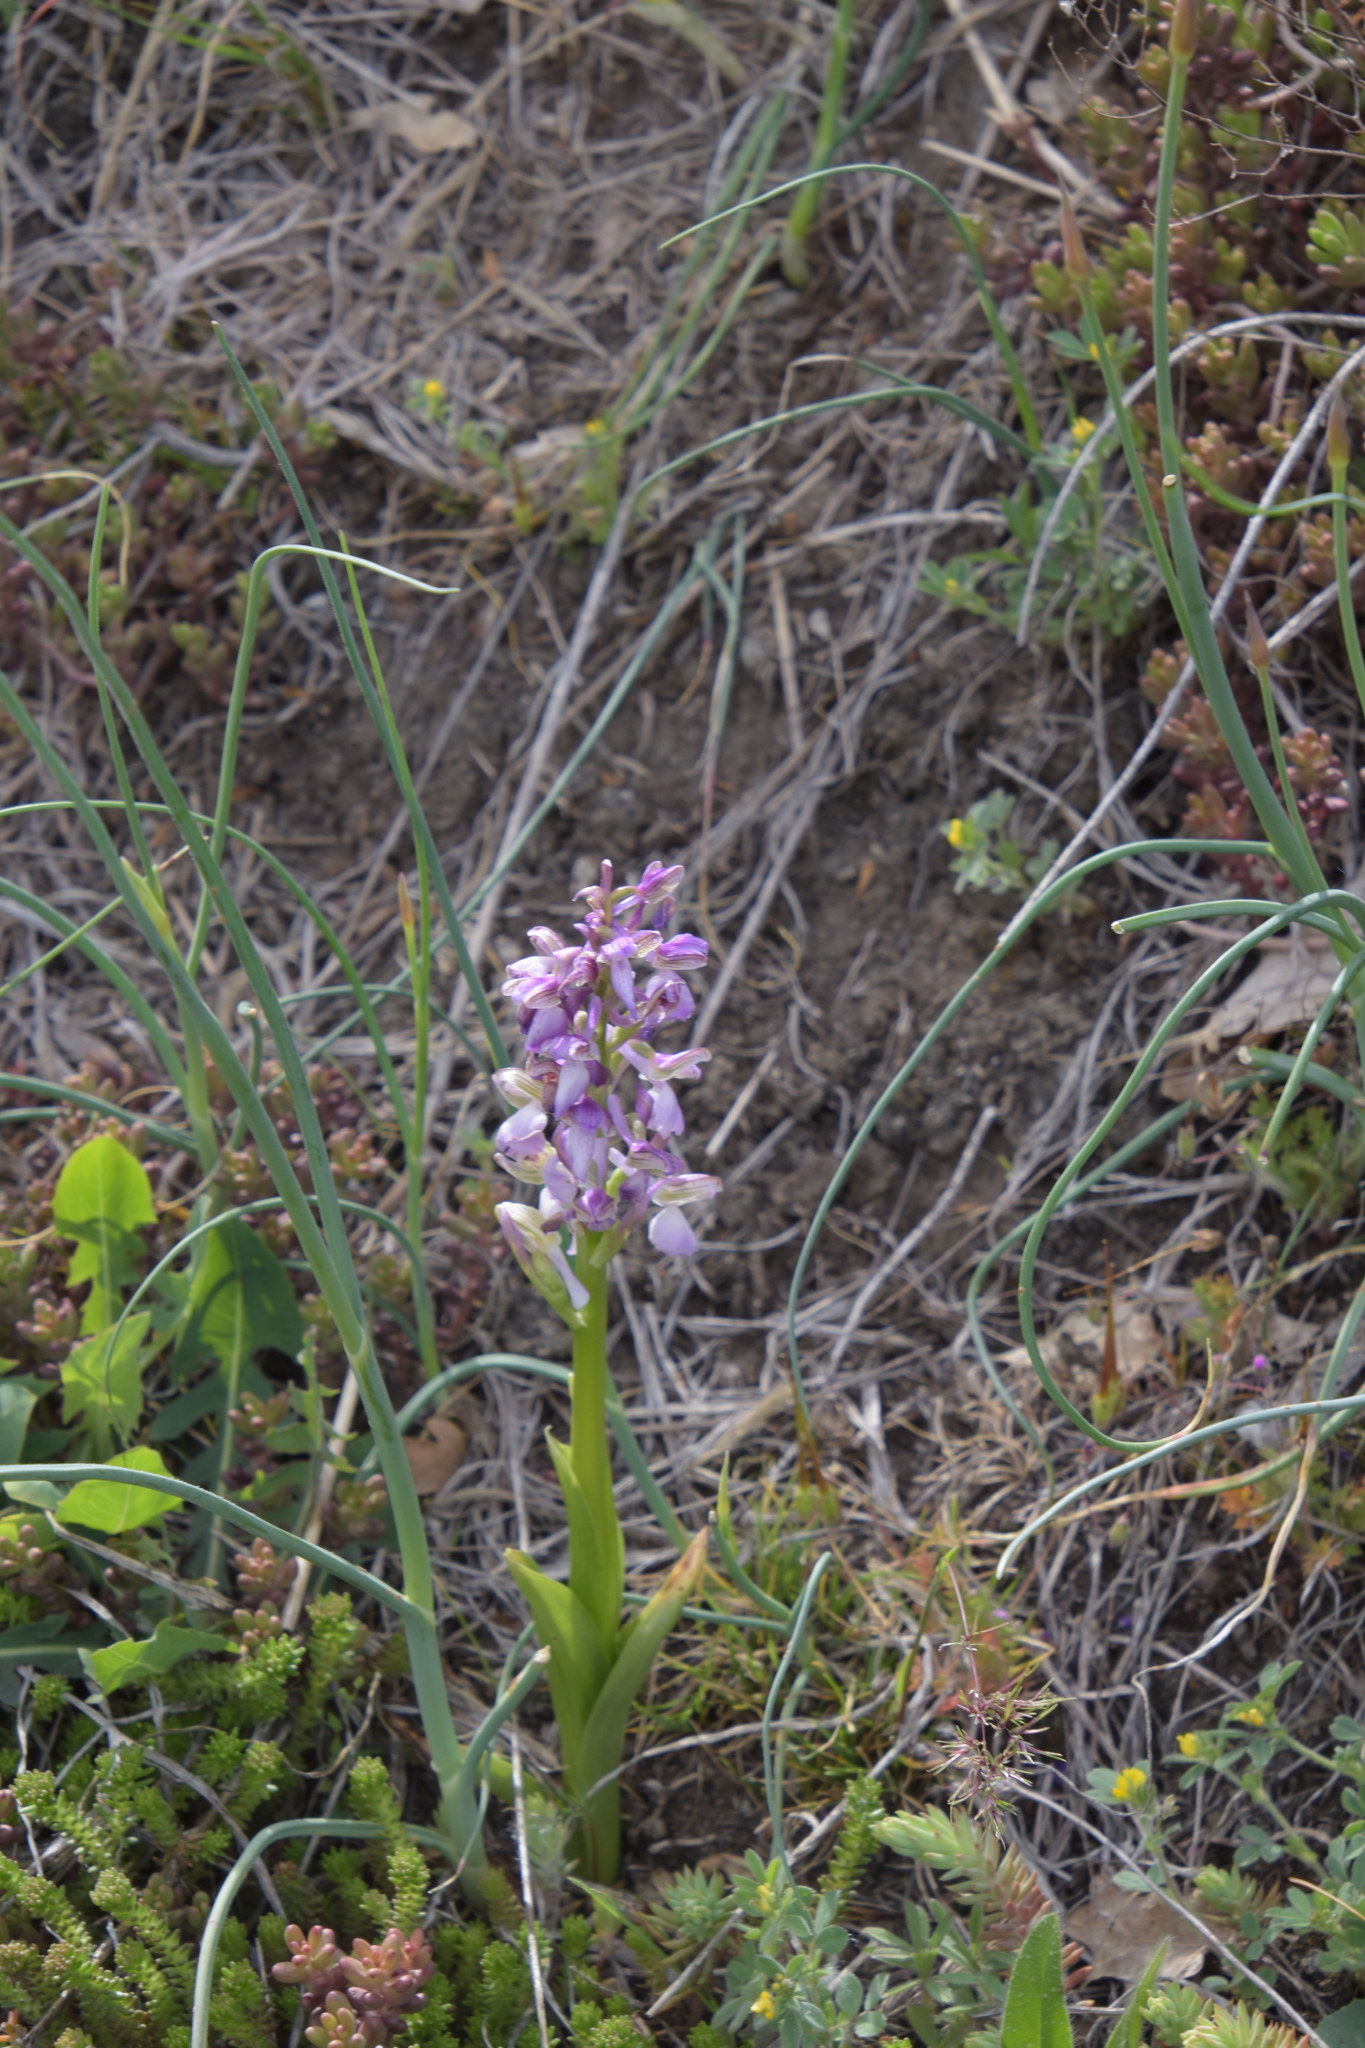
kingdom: Plantae
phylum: Tracheophyta
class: Liliopsida
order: Asparagales
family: Orchidaceae
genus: Anacamptis
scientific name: Anacamptis morio
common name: Green-winged orchid
